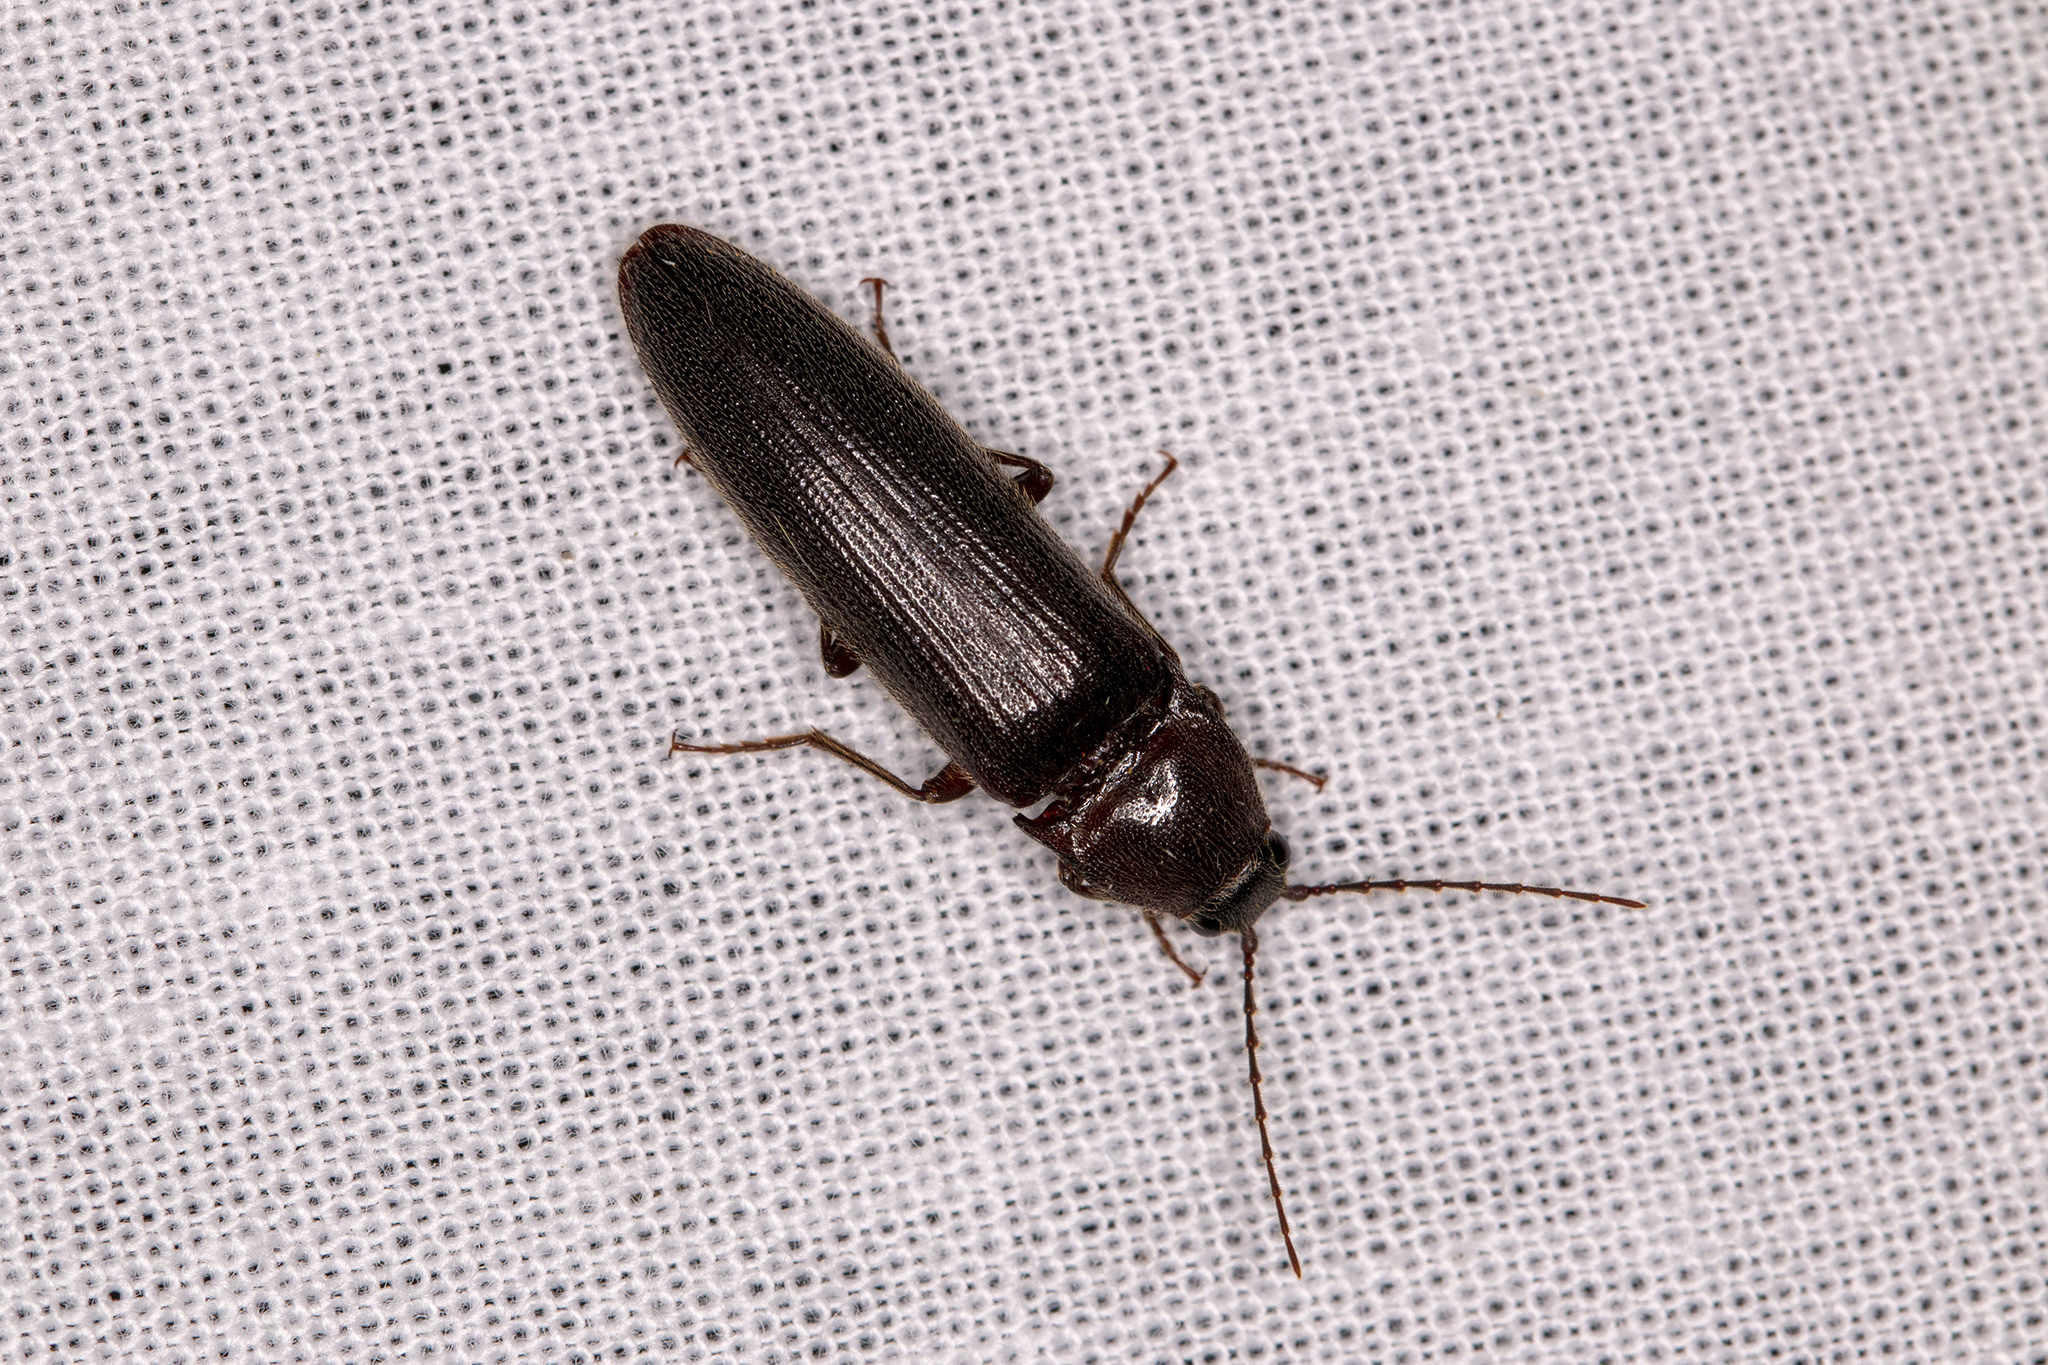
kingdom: Animalia
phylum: Arthropoda
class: Insecta
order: Coleoptera
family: Elateridae
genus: Melanotus
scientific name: Melanotus castanipes
